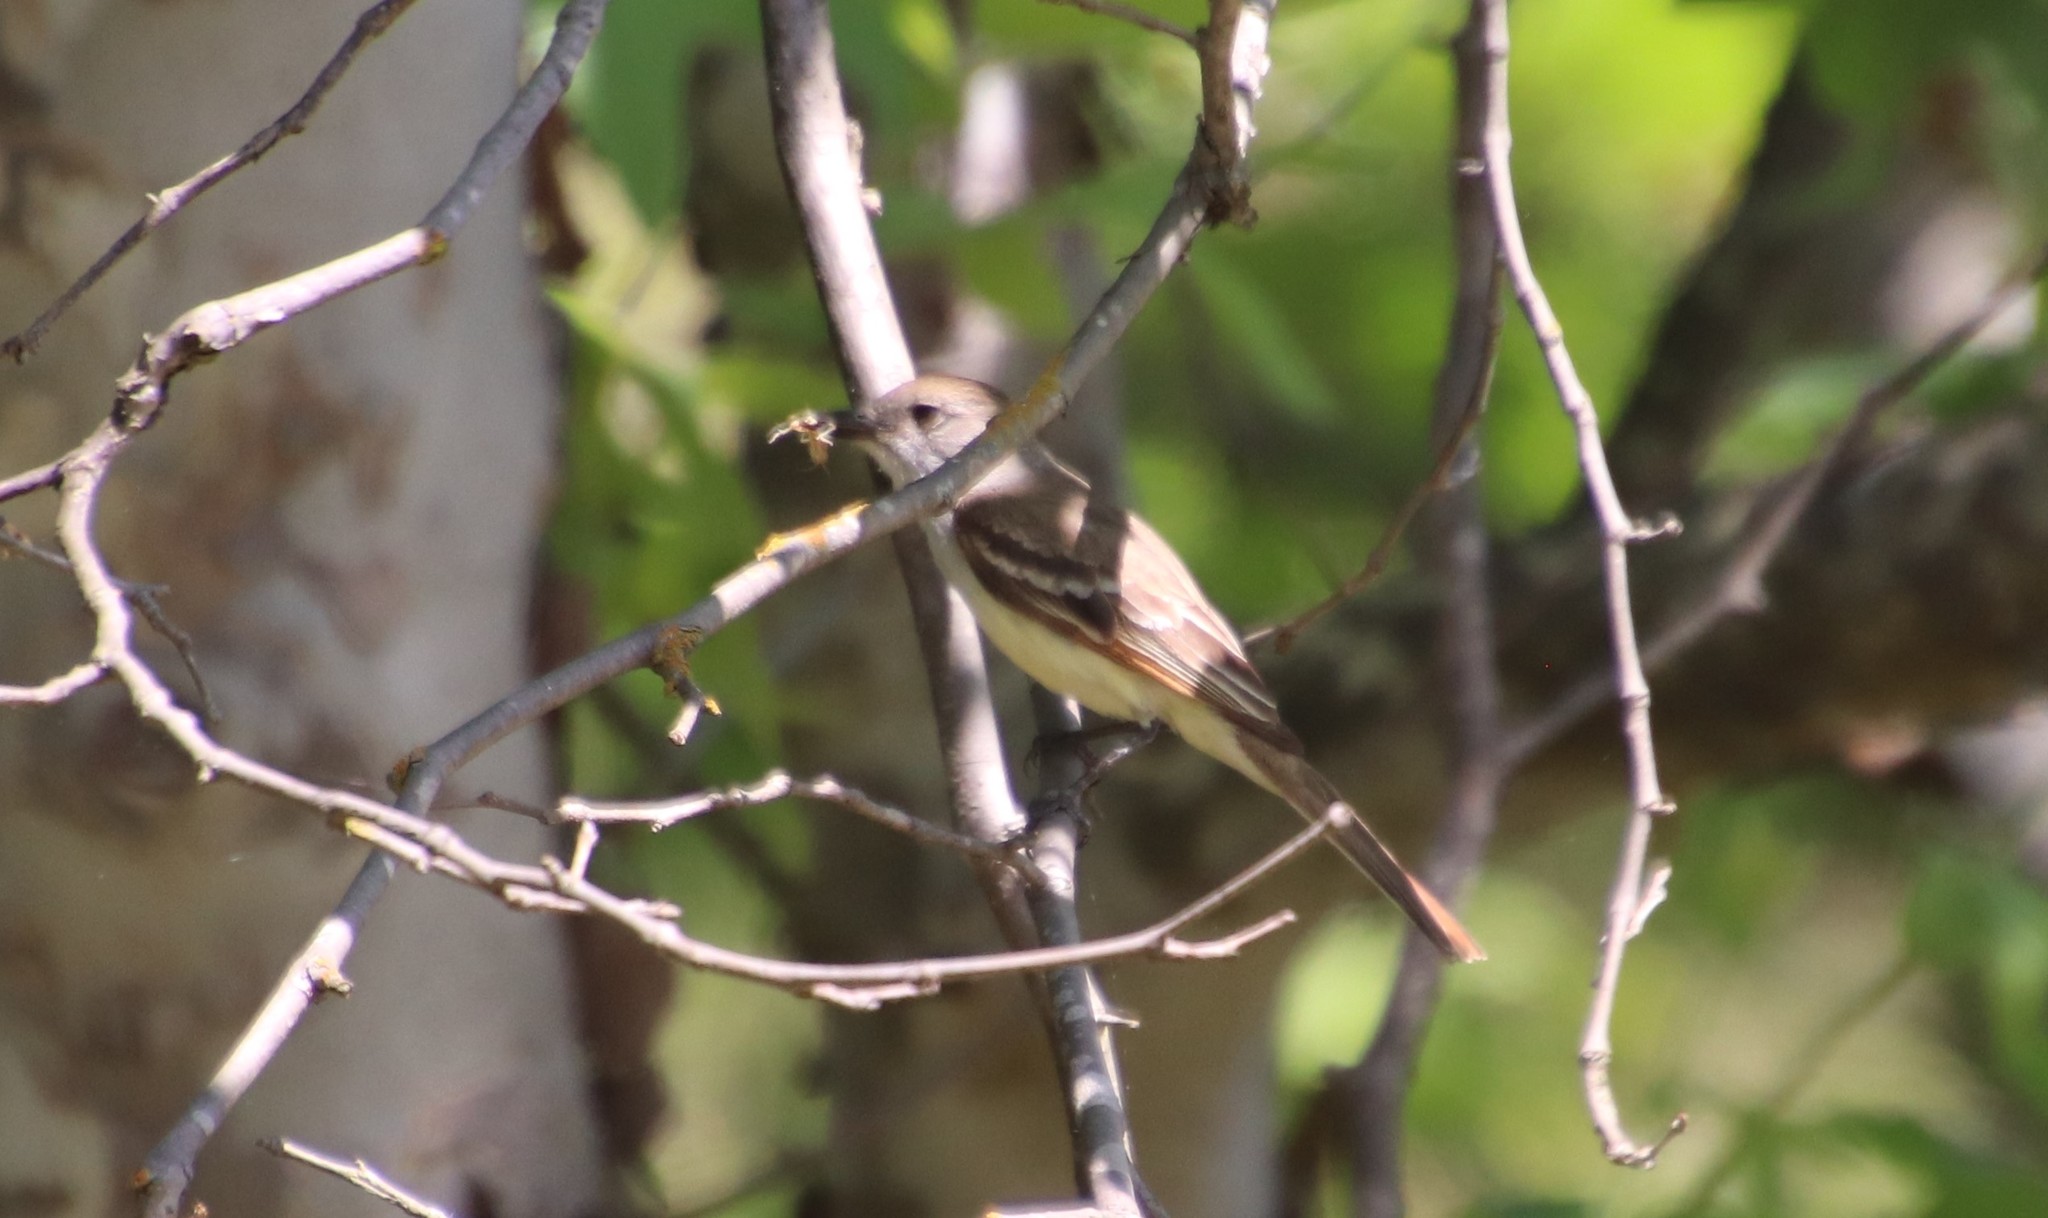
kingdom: Animalia
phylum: Chordata
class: Aves
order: Passeriformes
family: Tyrannidae
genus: Myiarchus
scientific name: Myiarchus cinerascens
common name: Ash-throated flycatcher
